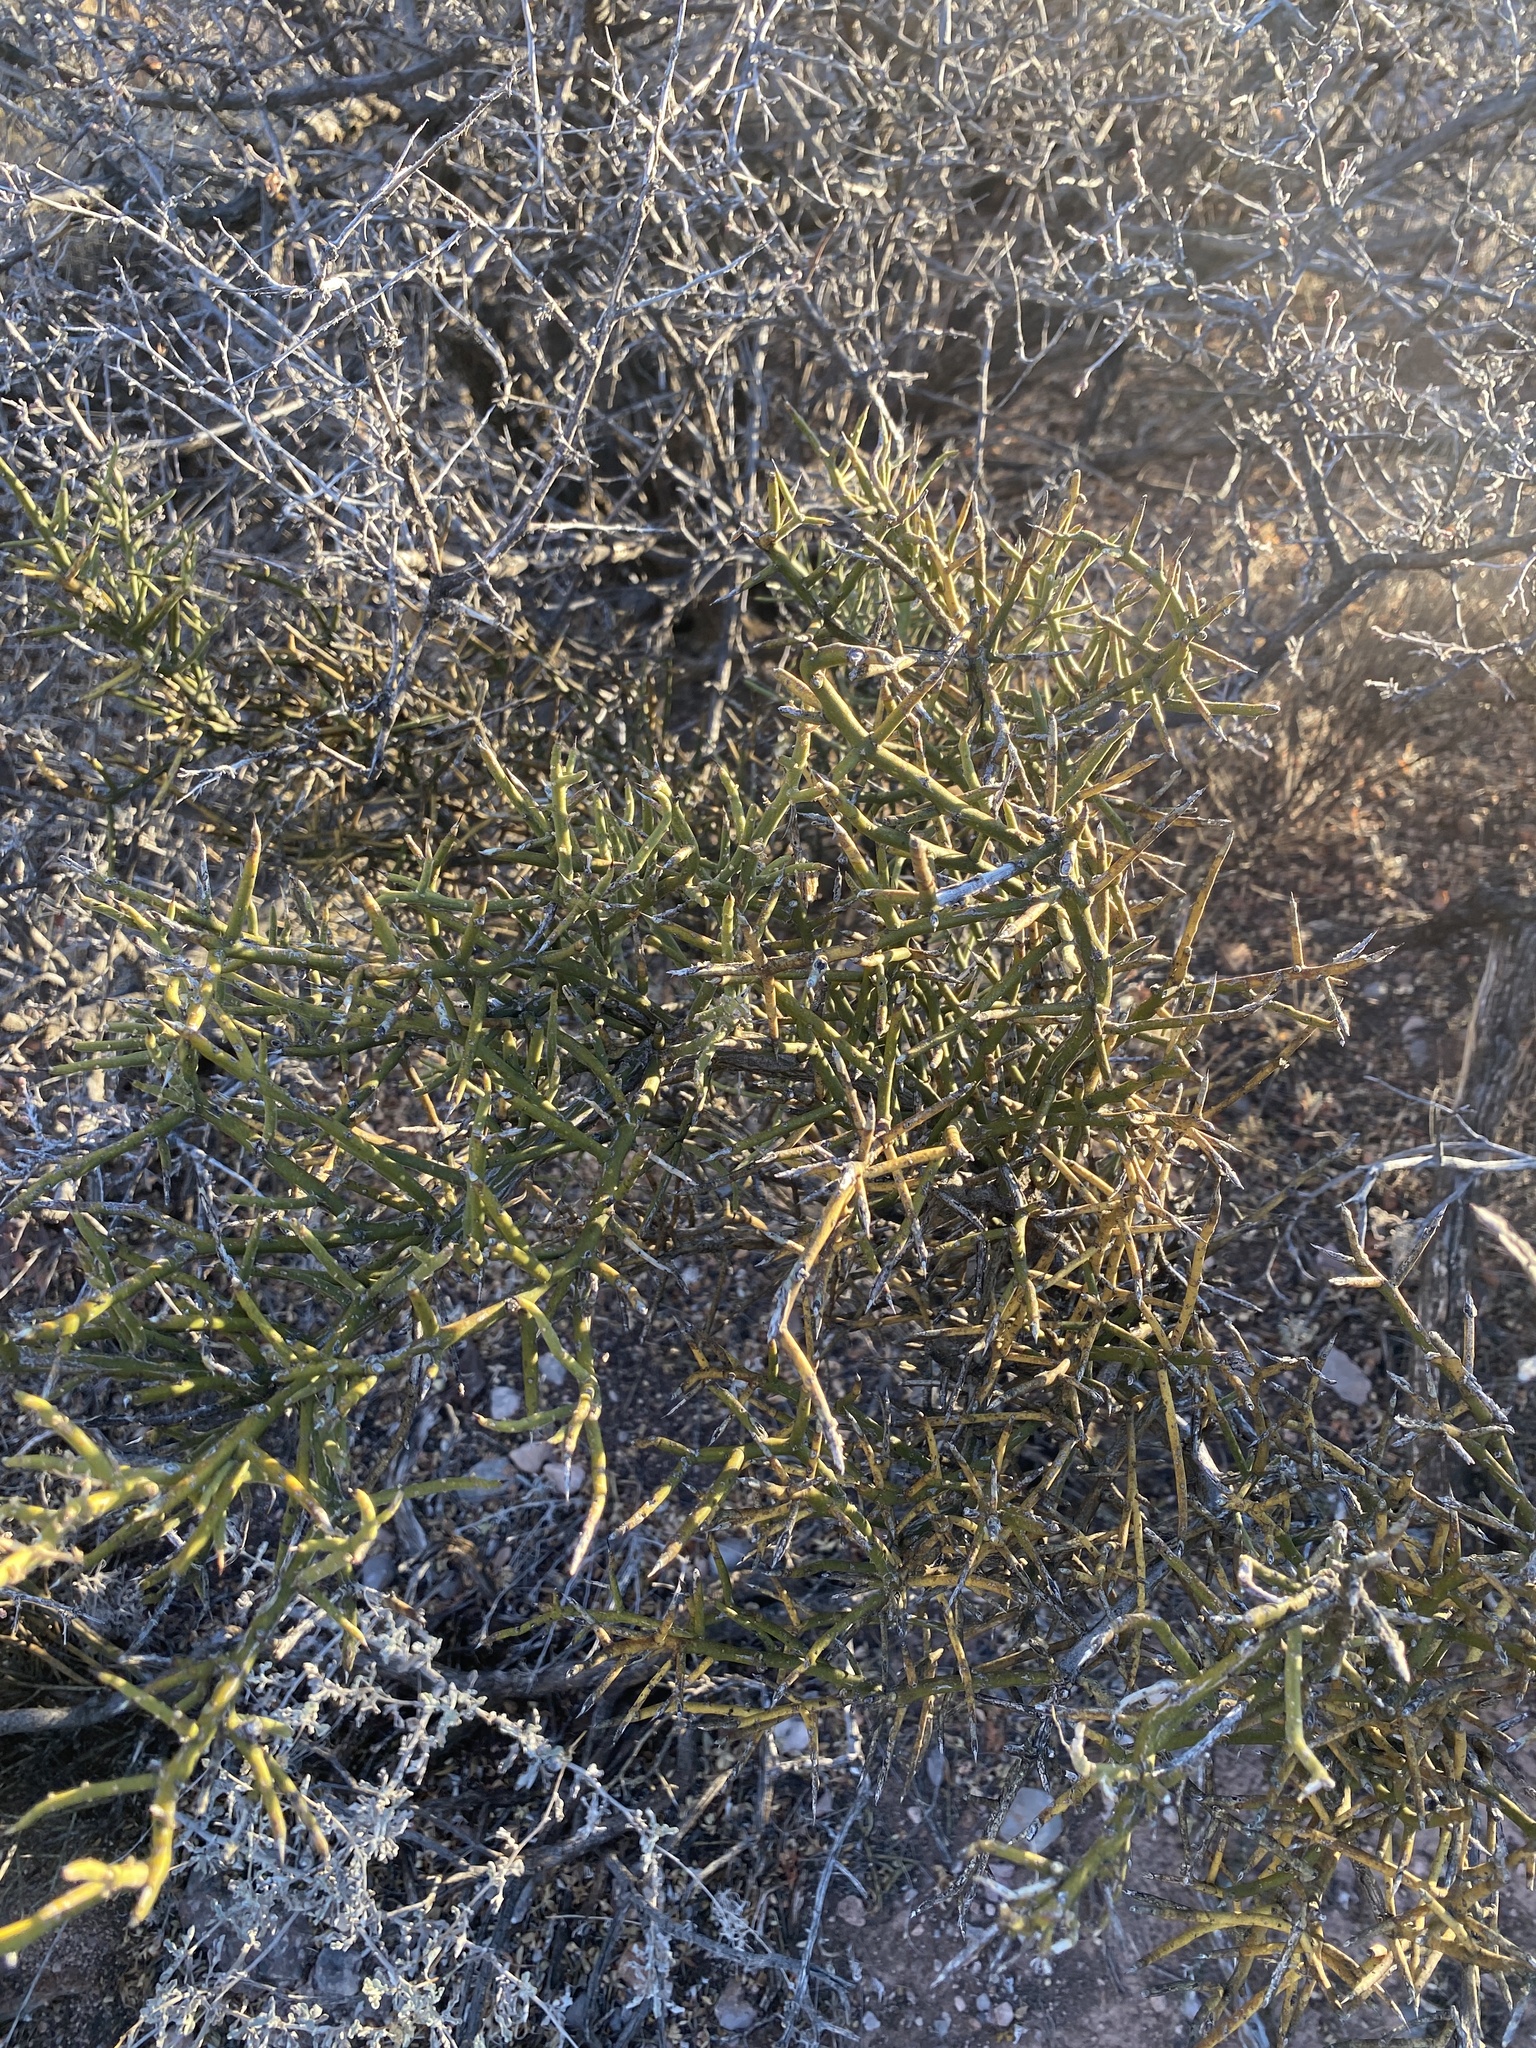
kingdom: Plantae
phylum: Tracheophyta
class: Magnoliopsida
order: Brassicales
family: Koeberliniaceae
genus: Koeberlinia
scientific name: Koeberlinia spinosa
